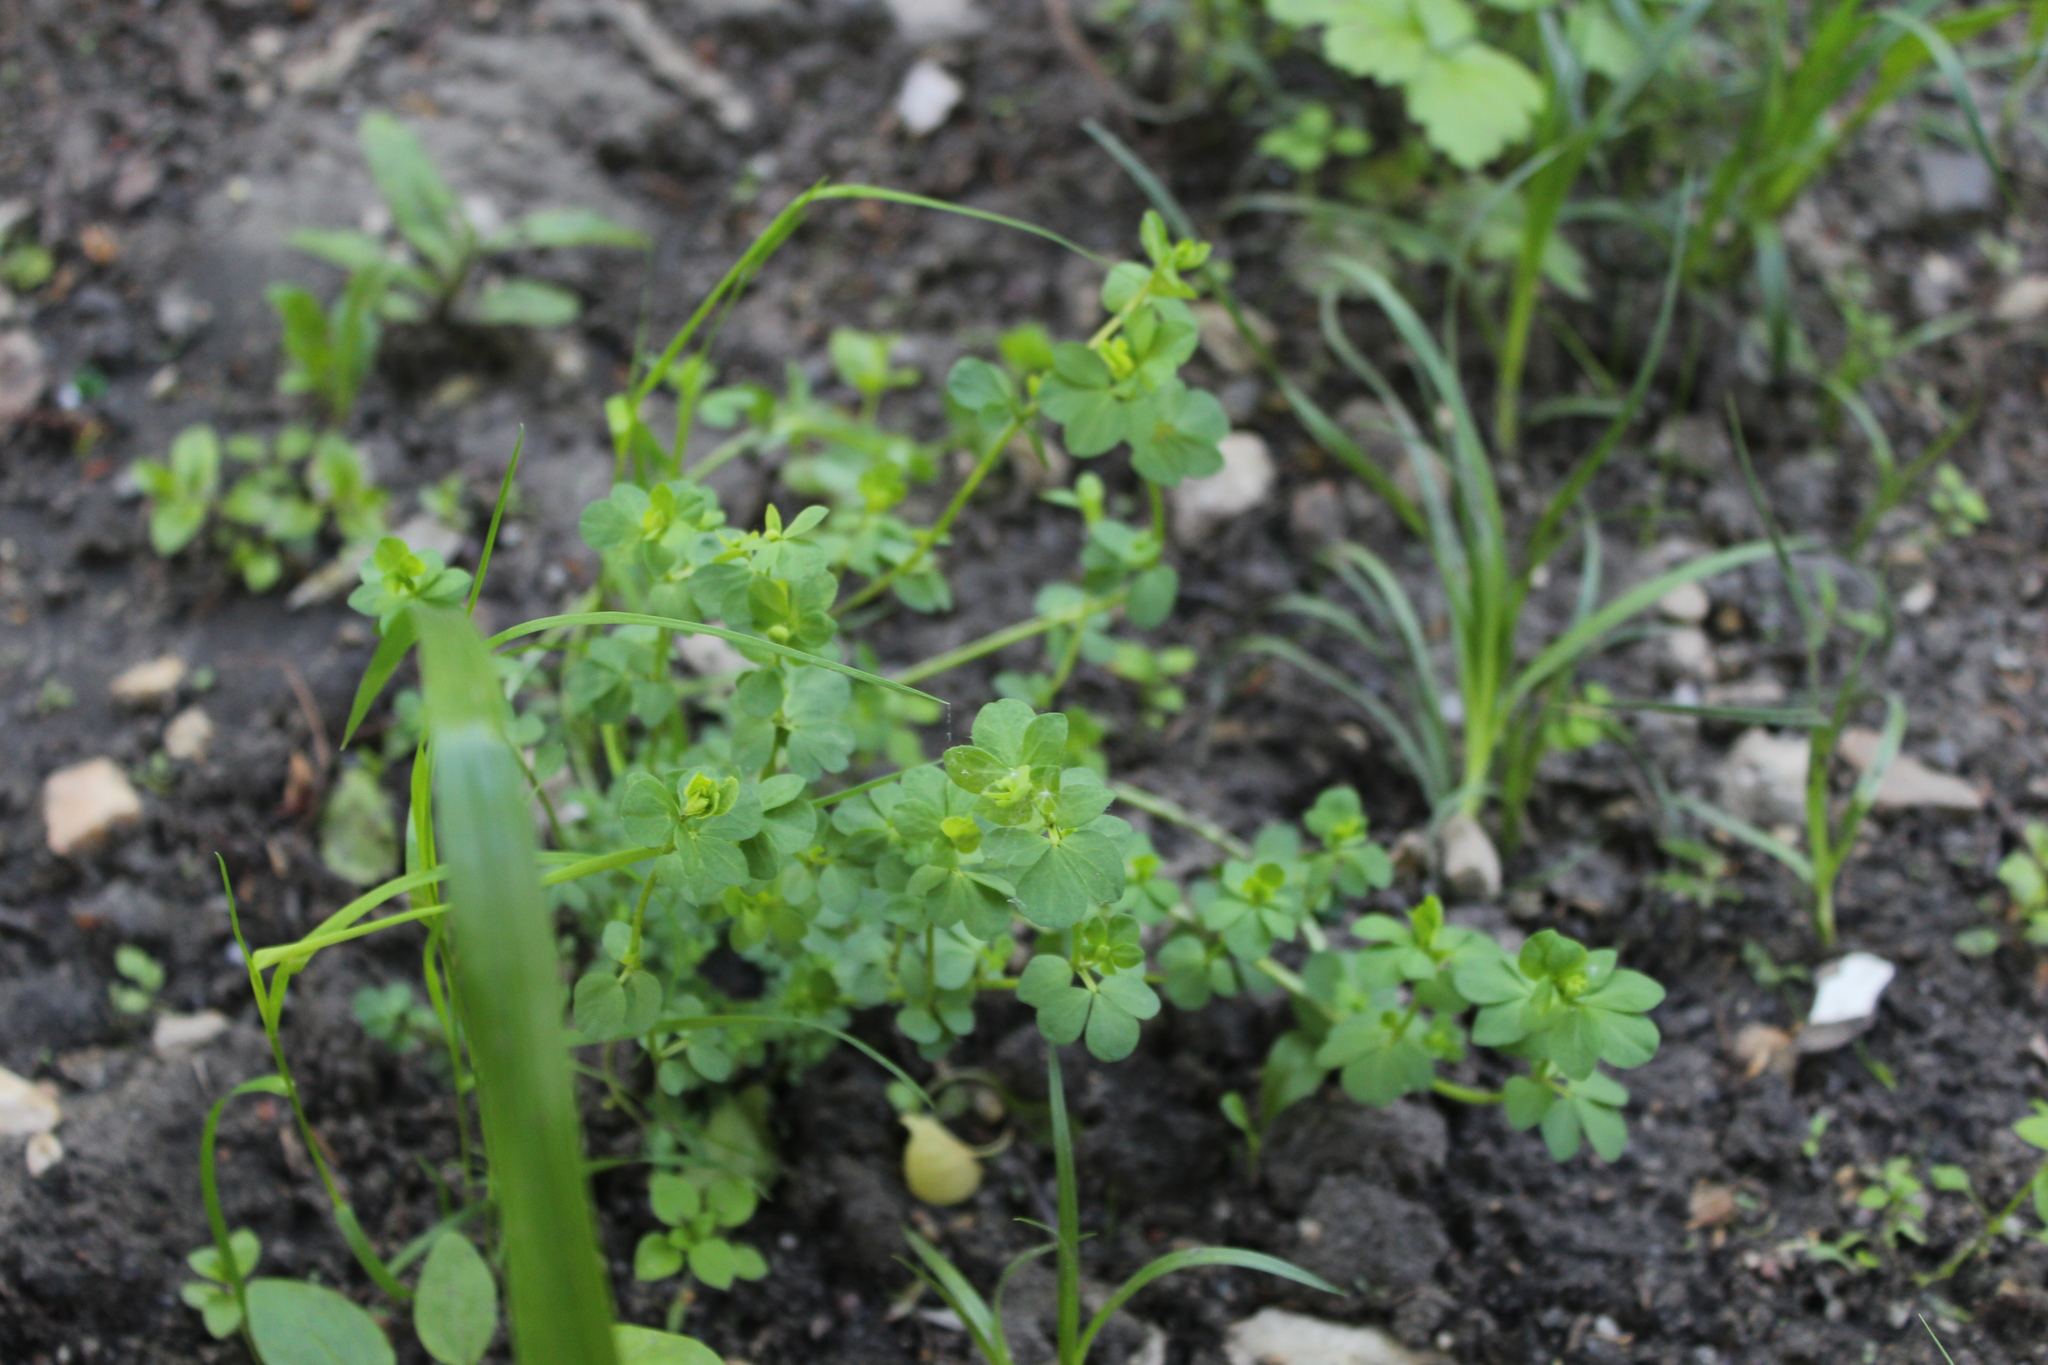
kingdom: Plantae
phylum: Tracheophyta
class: Magnoliopsida
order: Fabales
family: Fabaceae
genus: Lotus
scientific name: Lotus corniculatus
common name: Common bird's-foot-trefoil
